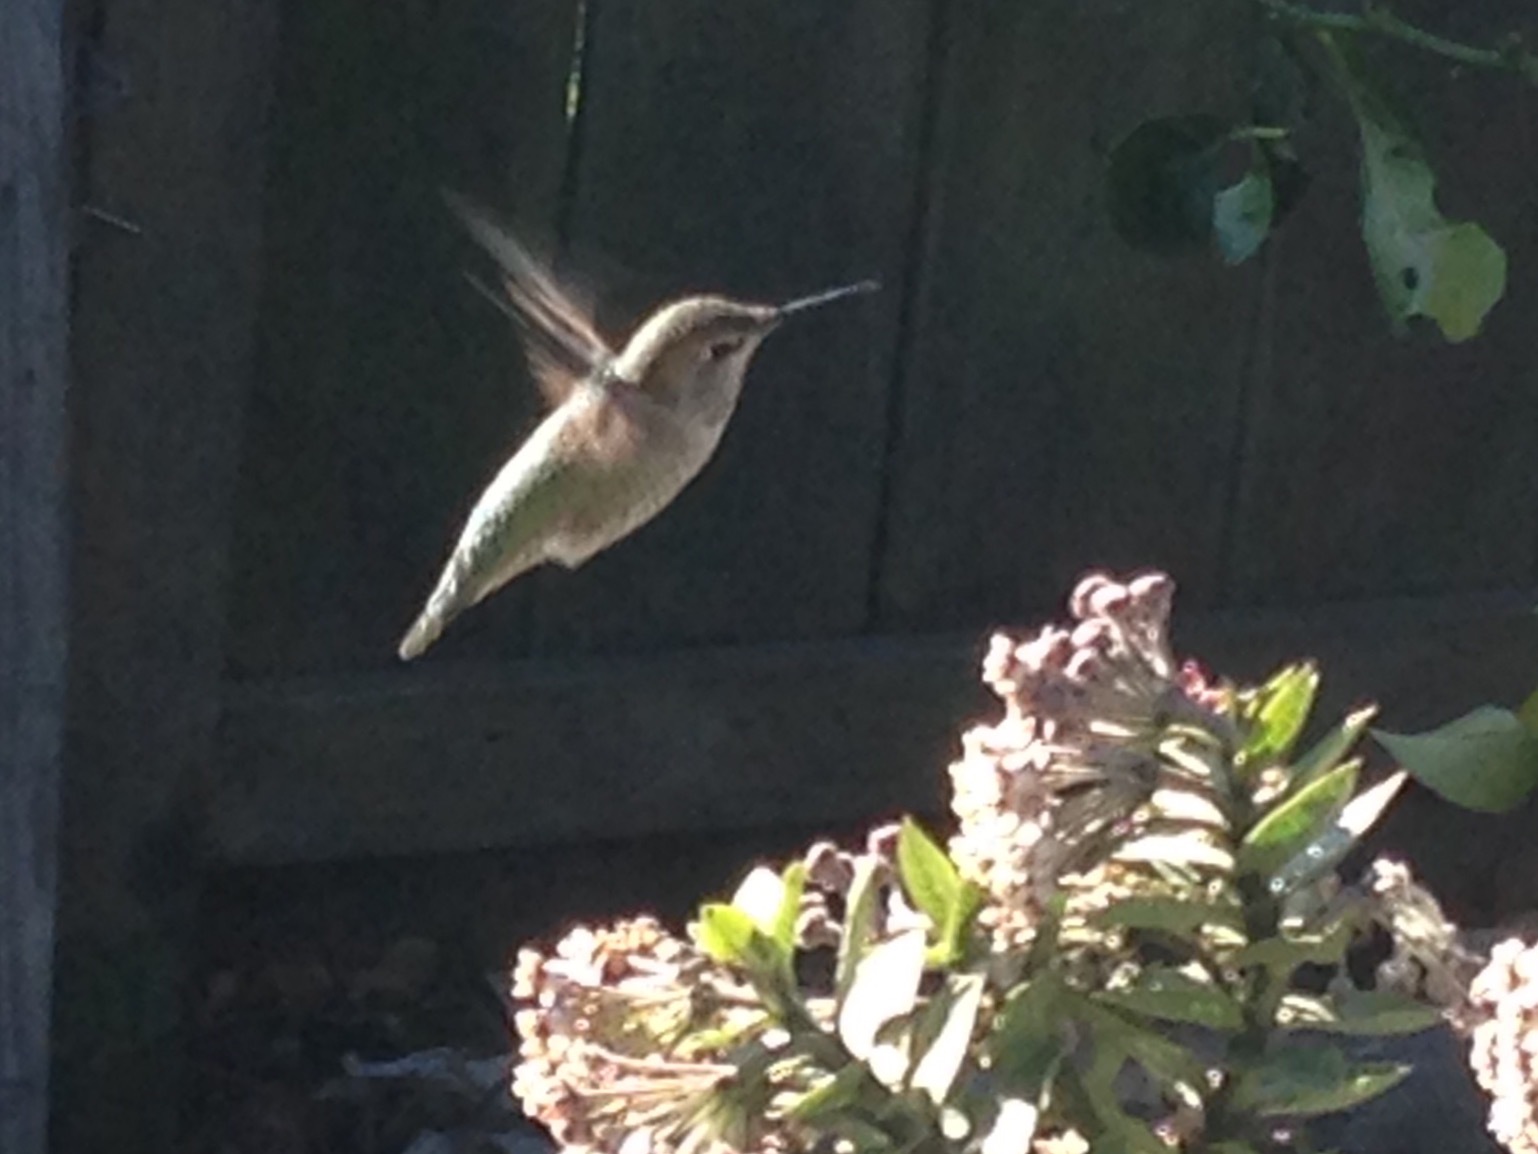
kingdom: Animalia
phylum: Chordata
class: Aves
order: Apodiformes
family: Trochilidae
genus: Calypte
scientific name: Calypte anna
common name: Anna's hummingbird
